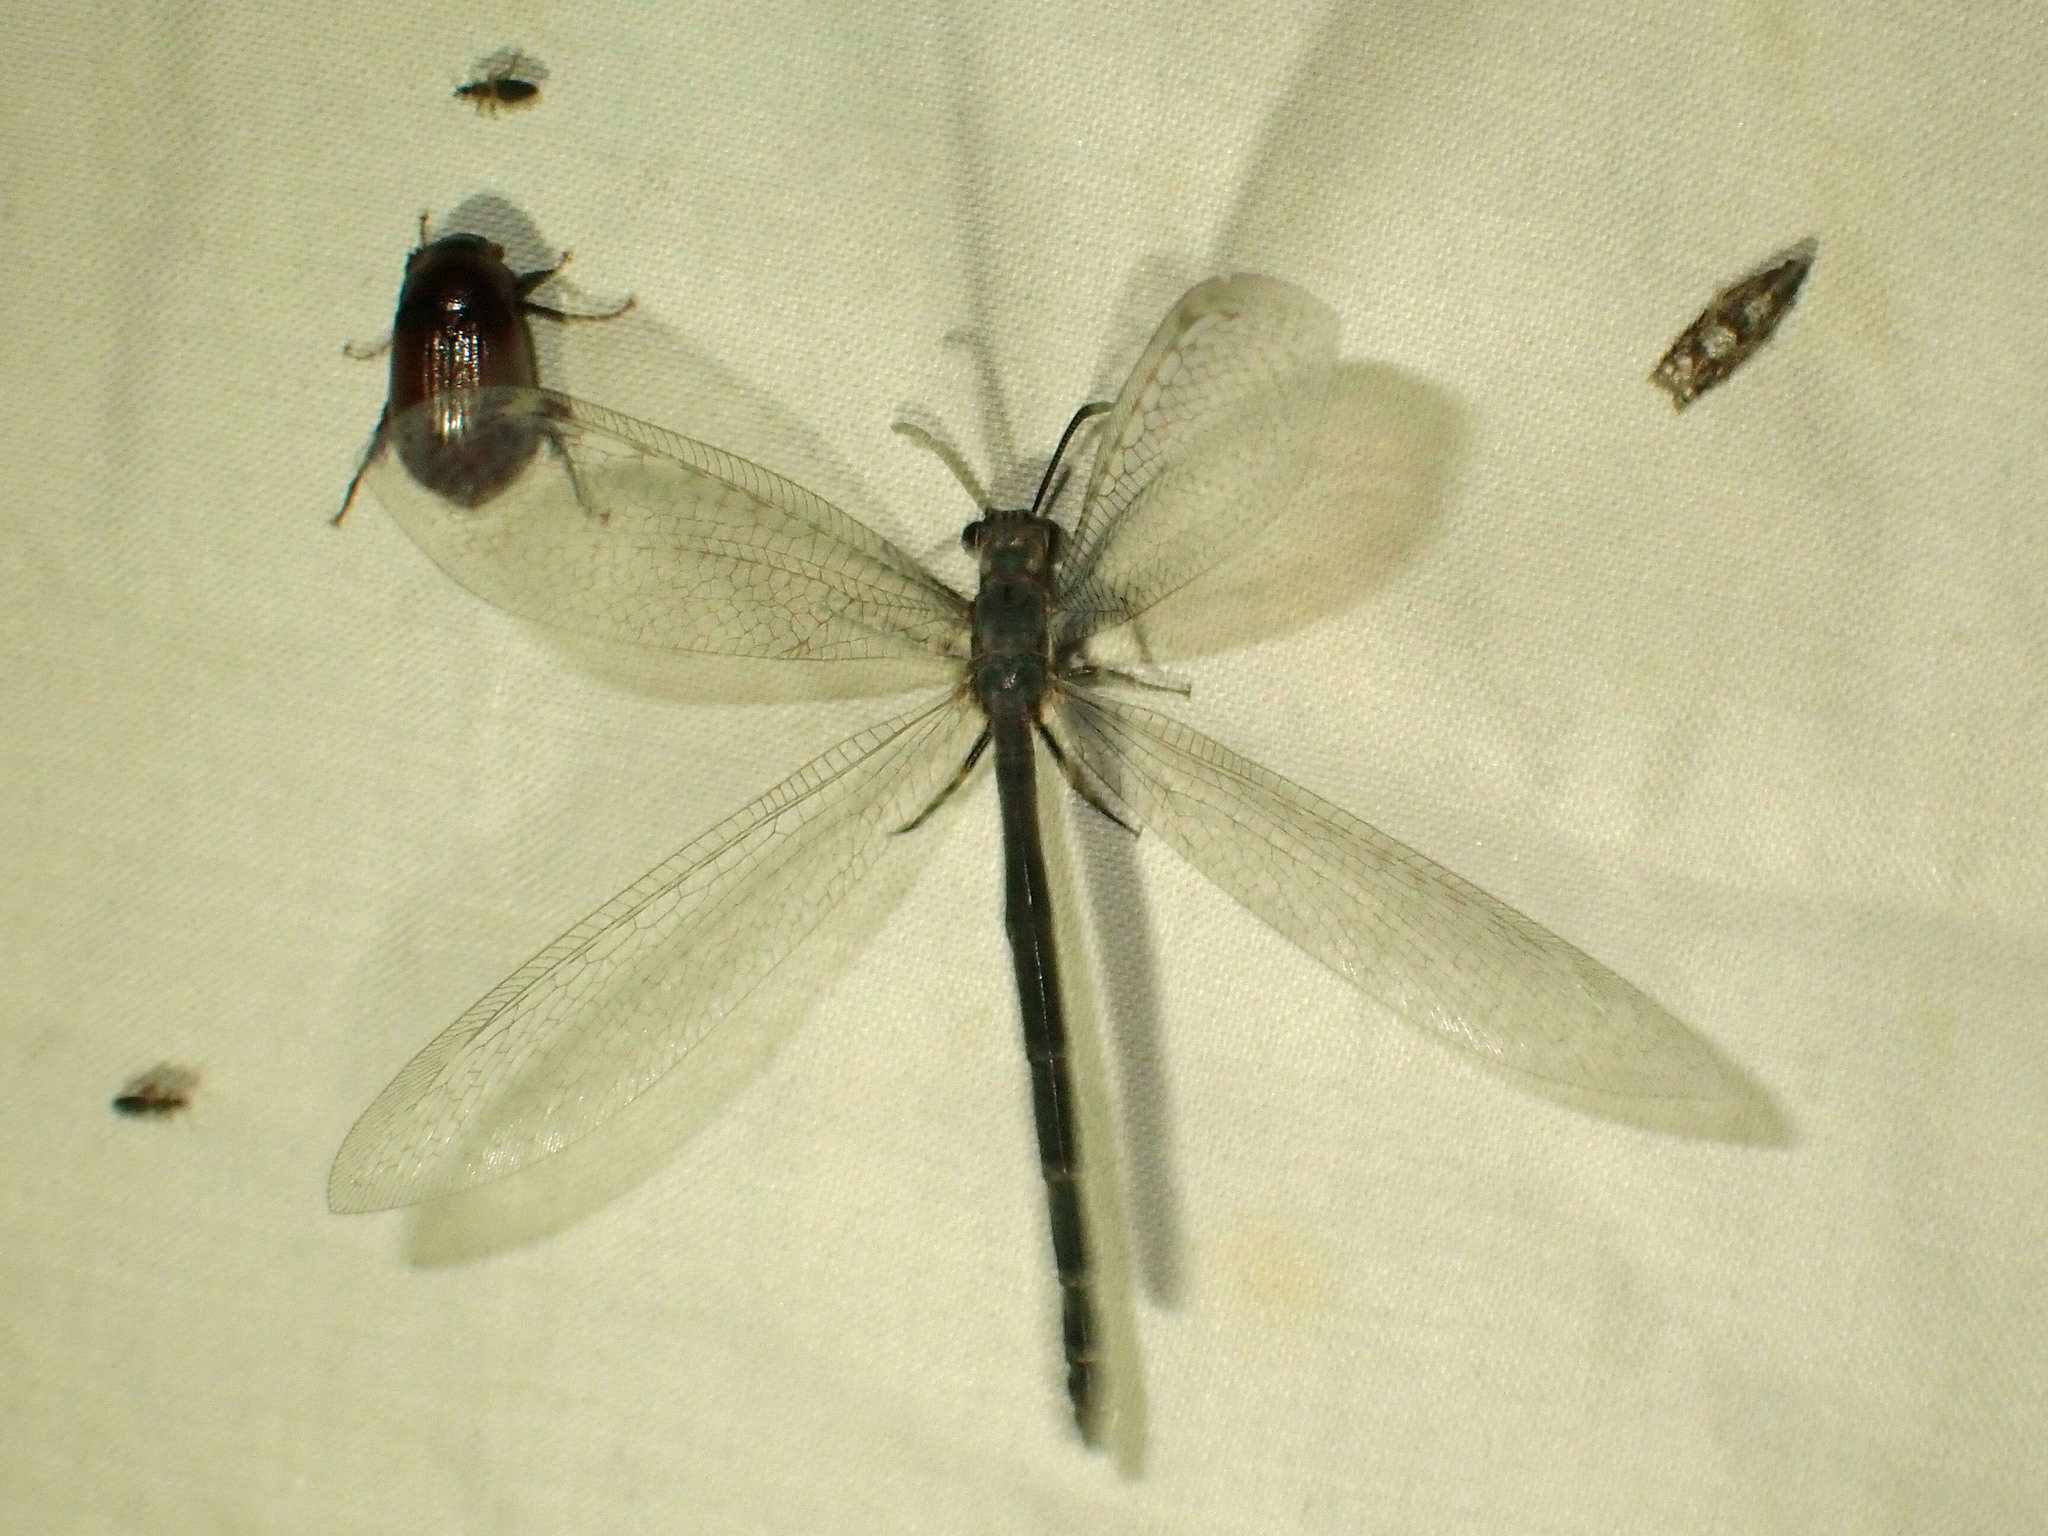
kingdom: Animalia
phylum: Arthropoda
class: Insecta
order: Neuroptera
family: Myrmeleontidae
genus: Myrmeleon
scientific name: Myrmeleon immaculatus
